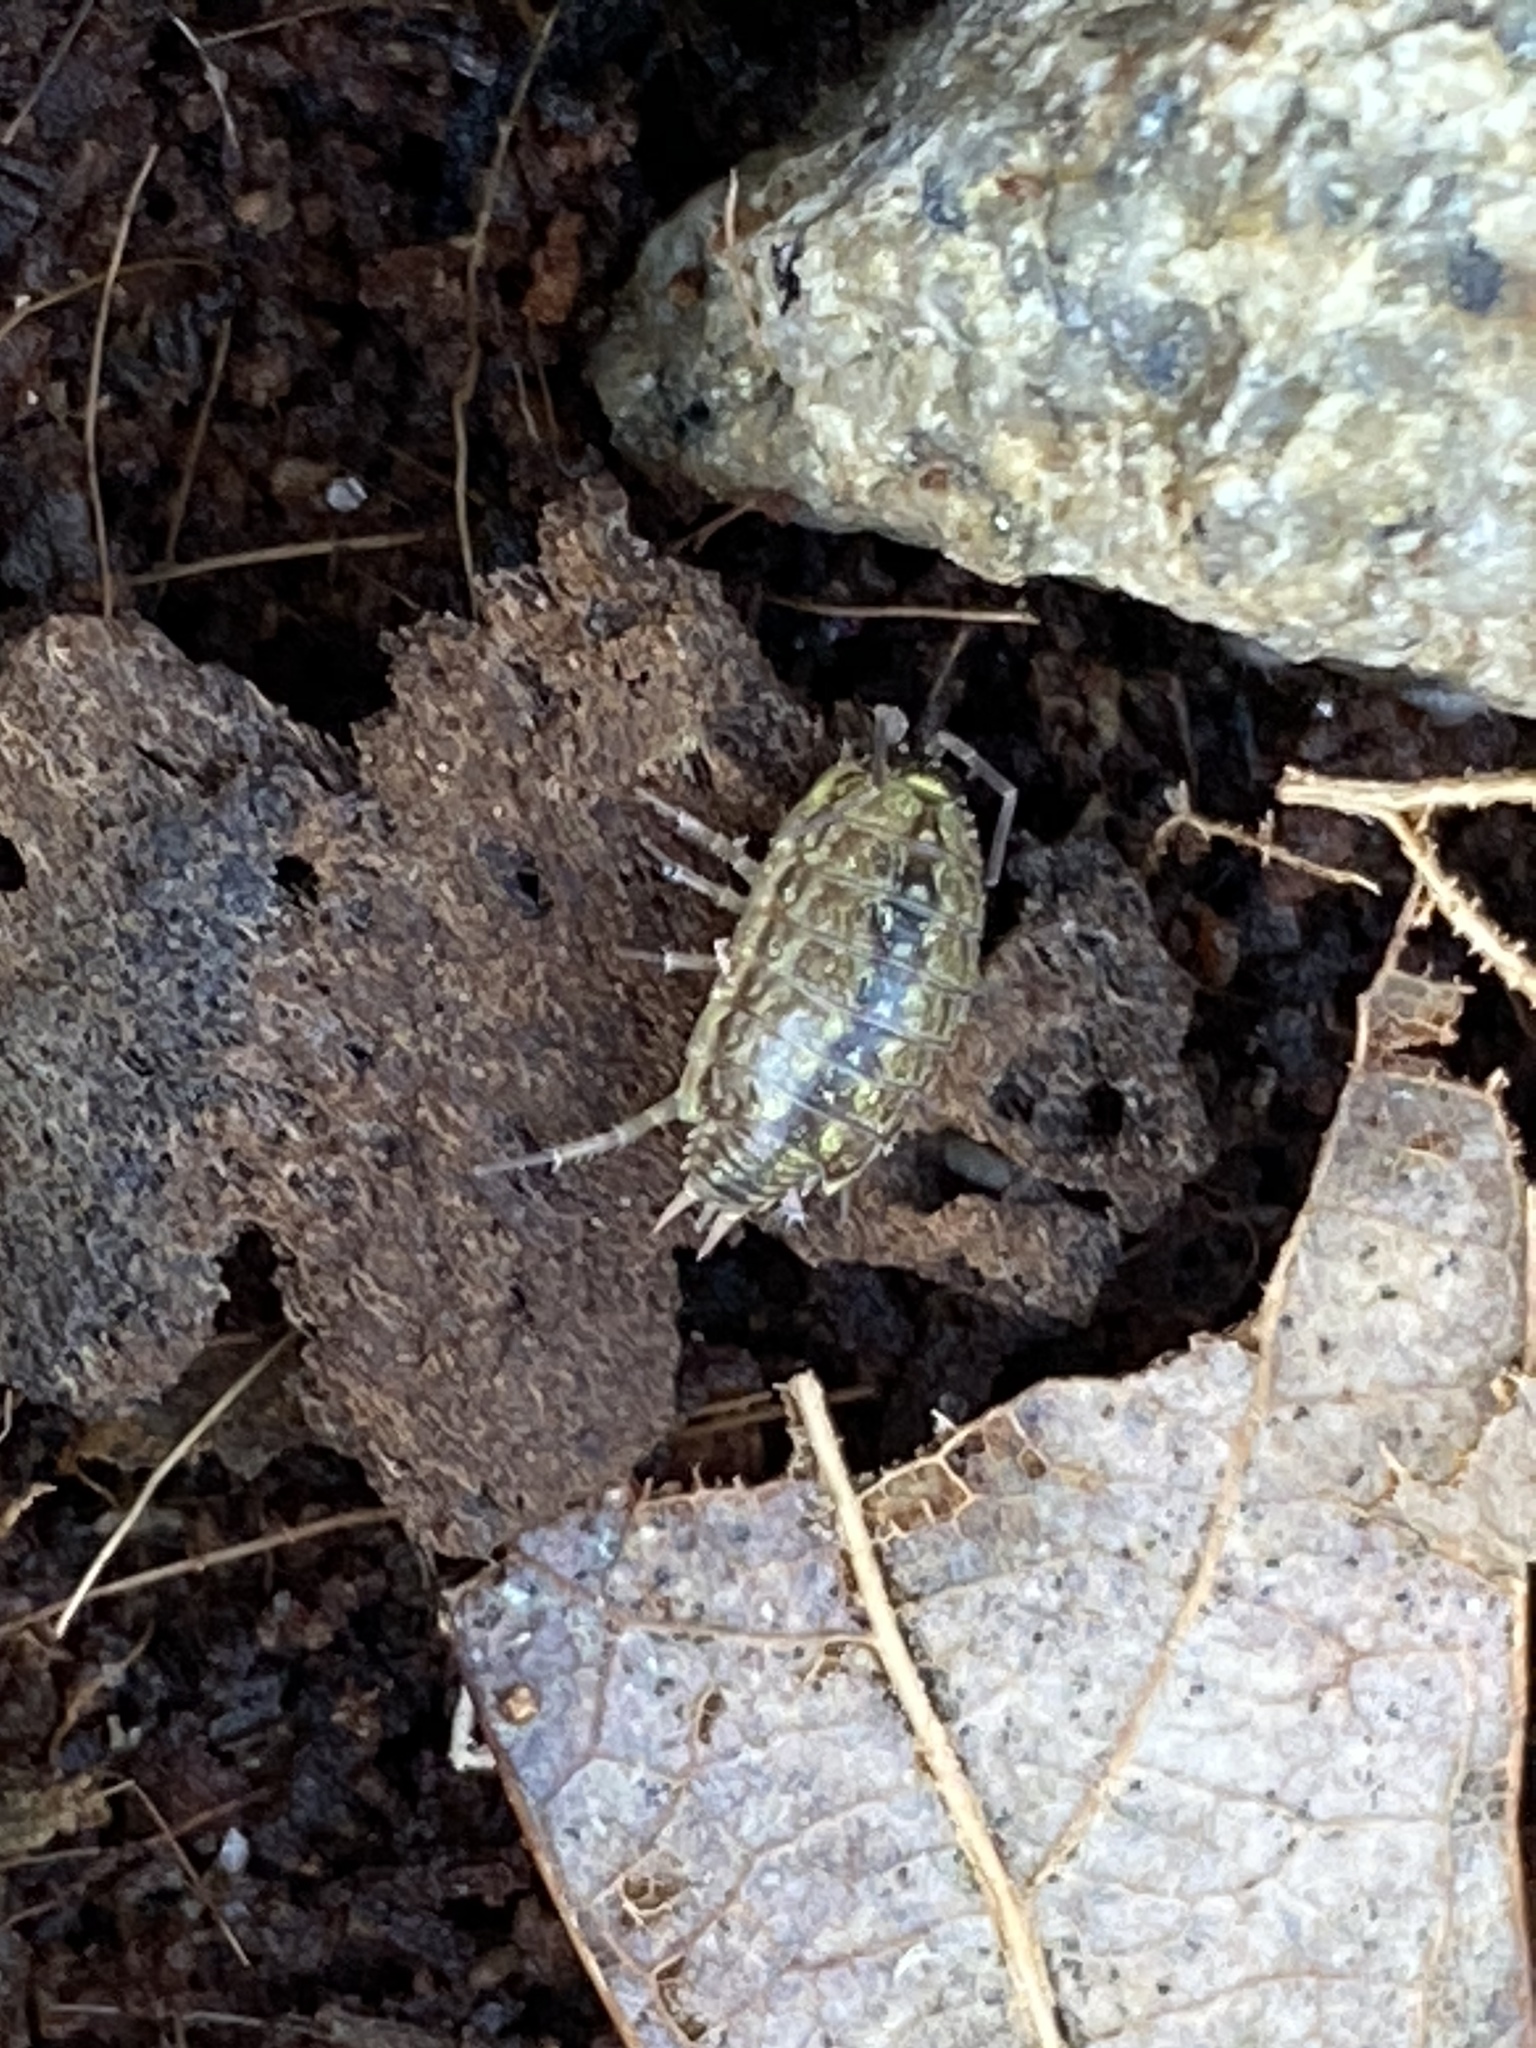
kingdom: Animalia
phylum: Arthropoda
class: Malacostraca
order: Isopoda
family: Philosciidae
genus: Philoscia
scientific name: Philoscia muscorum
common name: Common striped woodlouse
